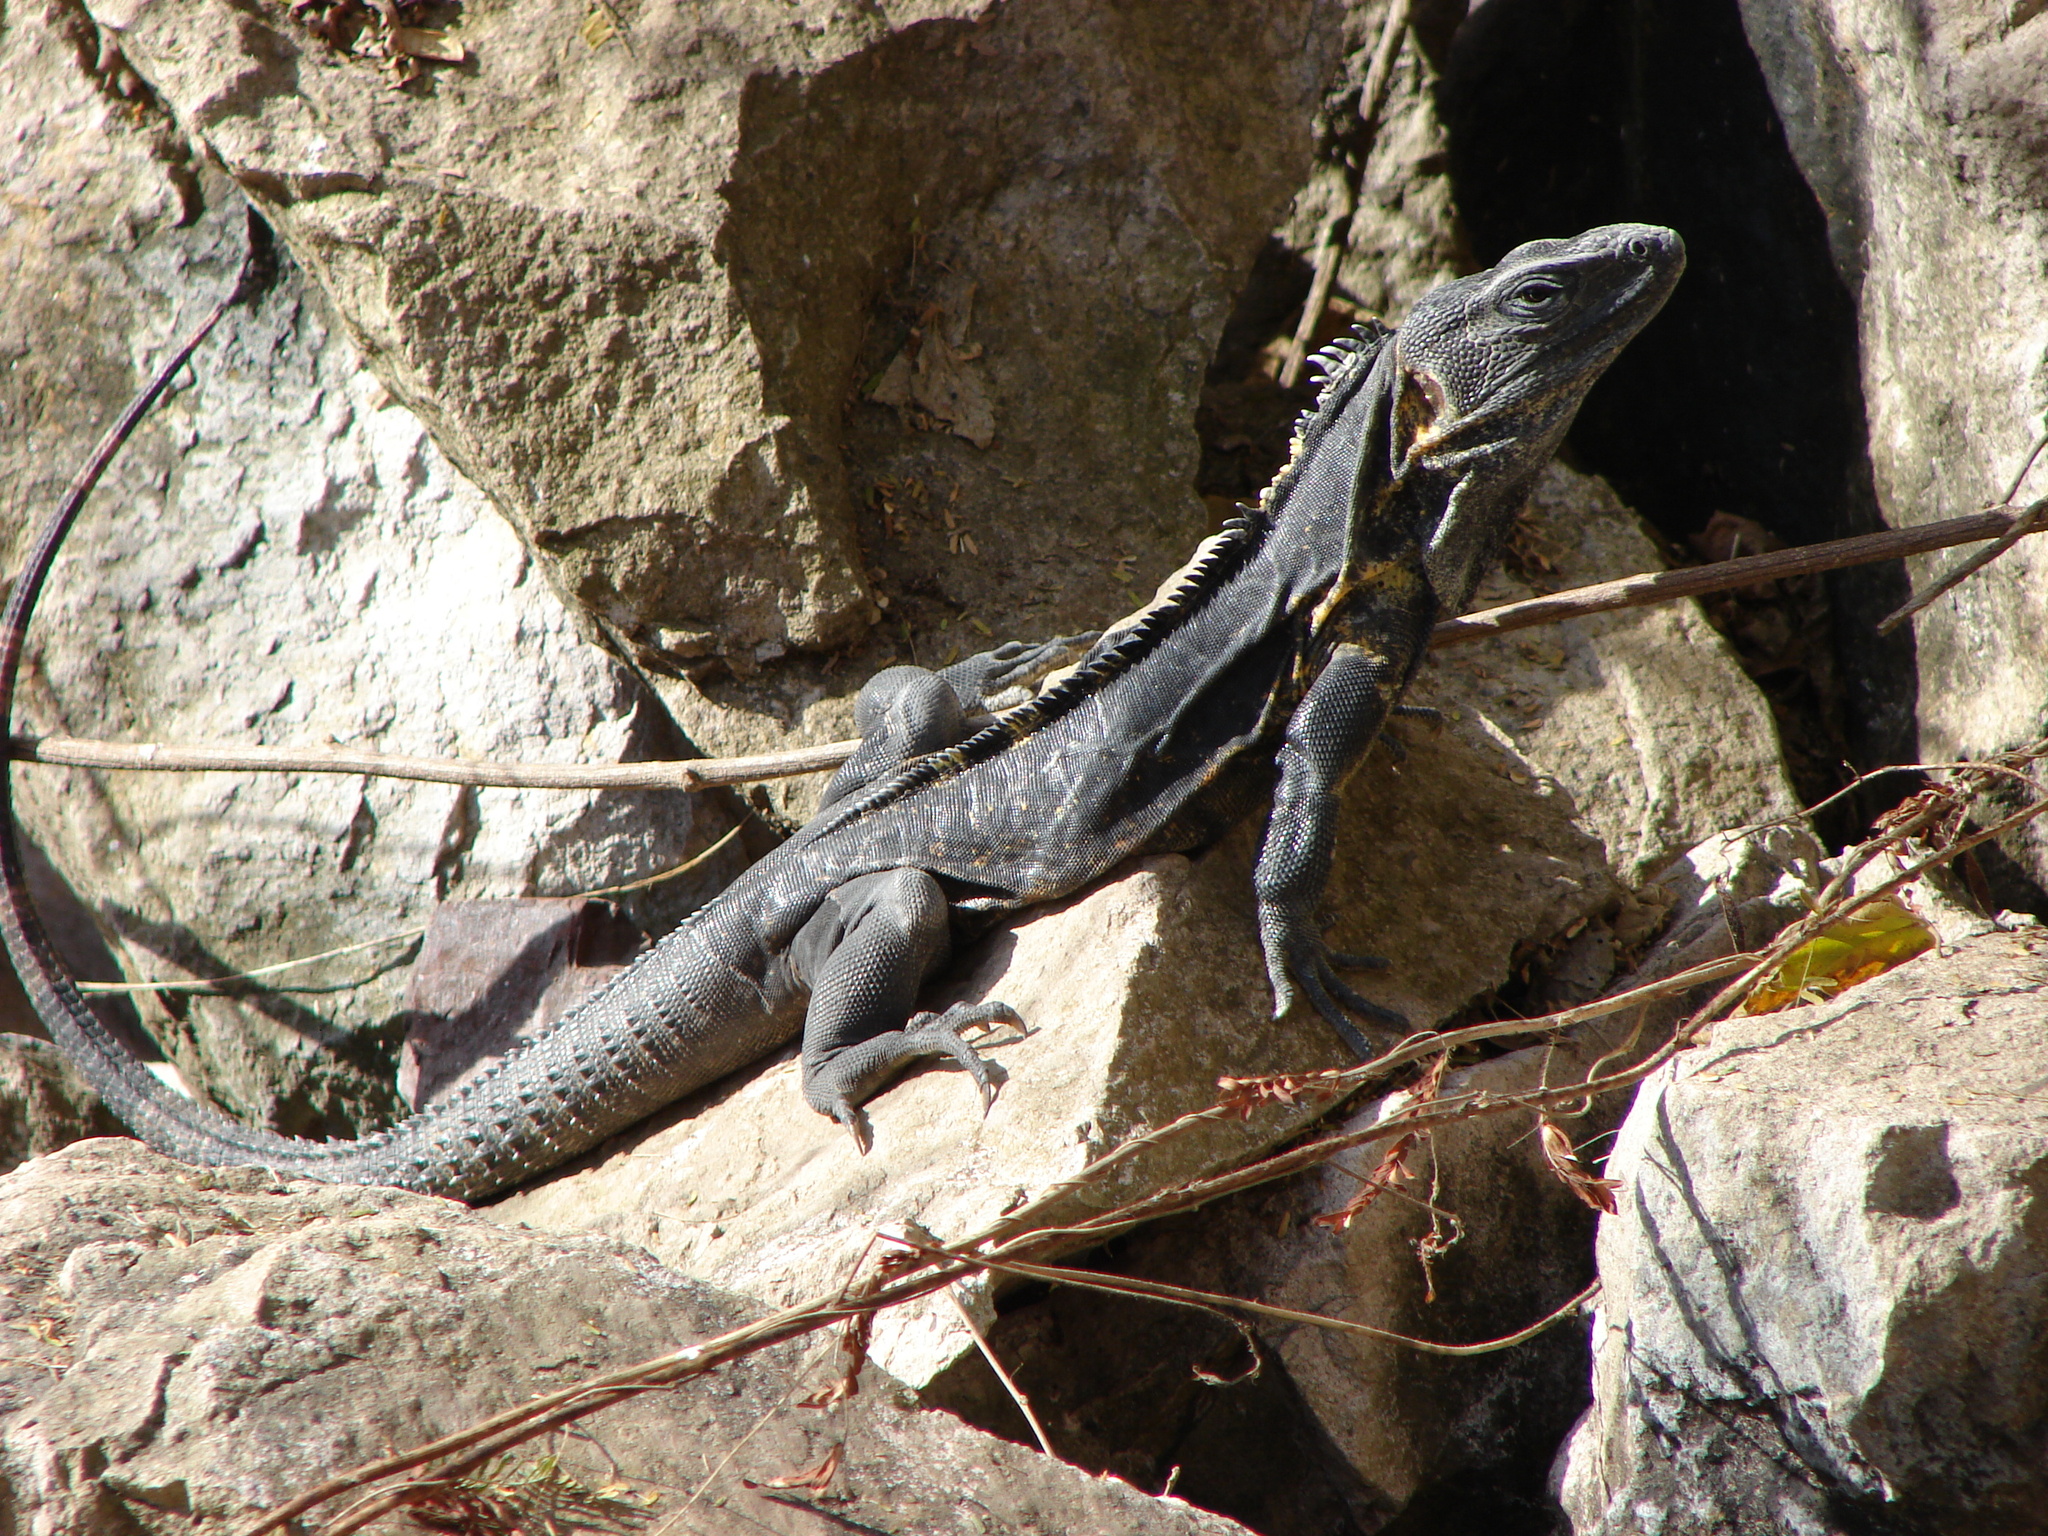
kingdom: Animalia
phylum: Chordata
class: Squamata
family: Iguanidae
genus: Ctenosaura
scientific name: Ctenosaura pectinata
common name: Guerreran spiny-tailed iguana
